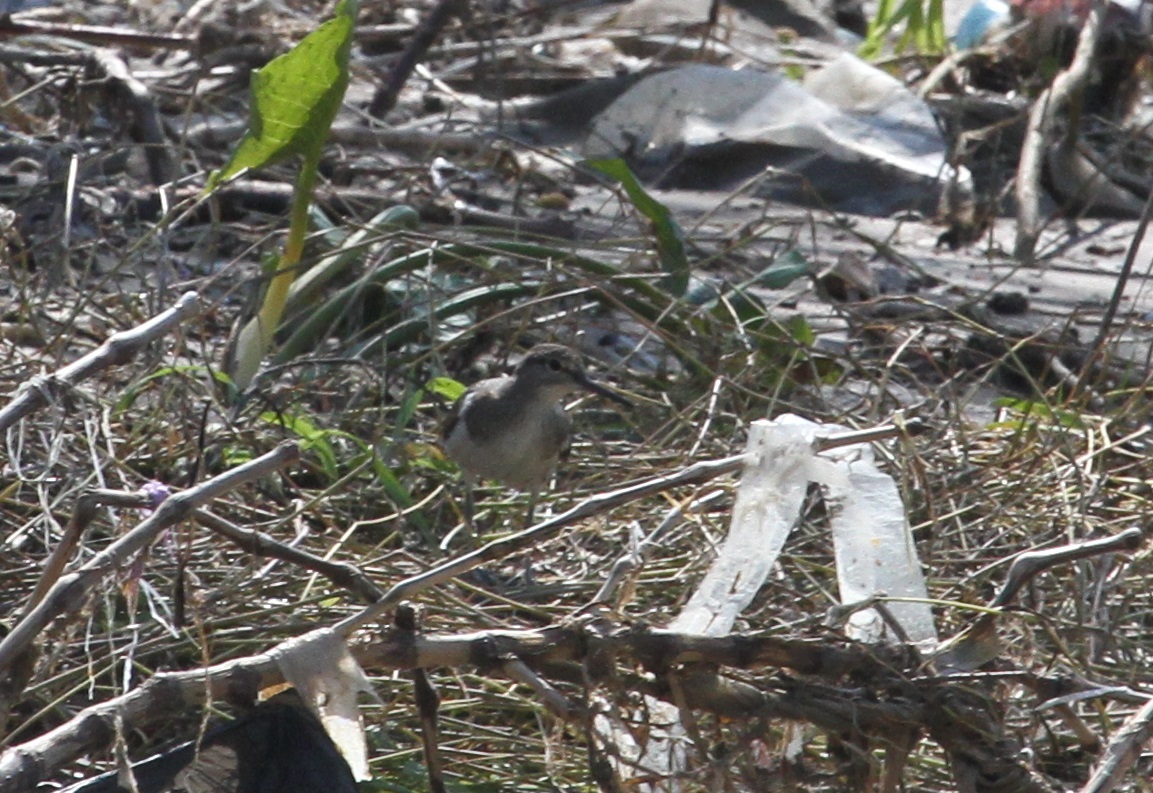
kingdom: Animalia
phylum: Chordata
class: Aves
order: Charadriiformes
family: Scolopacidae
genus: Actitis
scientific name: Actitis hypoleucos
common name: Common sandpiper
